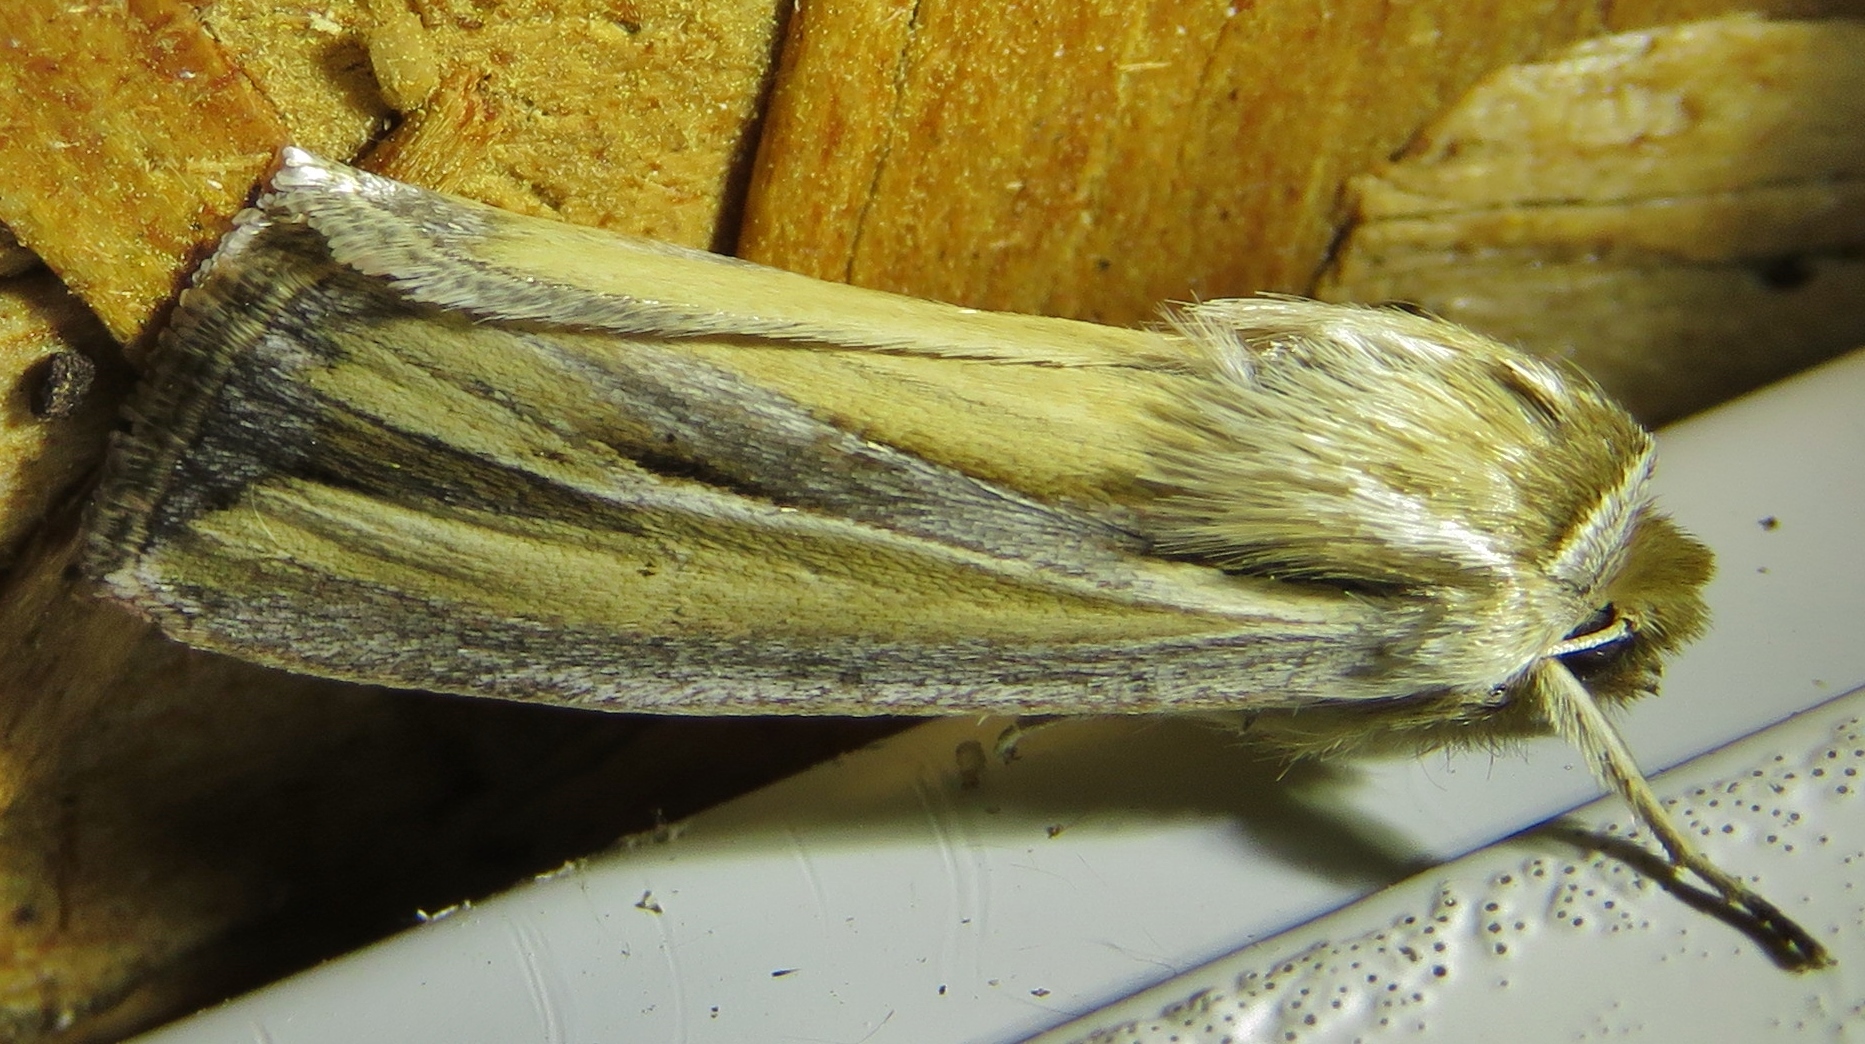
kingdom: Animalia
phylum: Arthropoda
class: Insecta
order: Lepidoptera
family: Noctuidae
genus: Dargida
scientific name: Dargida diffusa
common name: Wheat head armyworm
